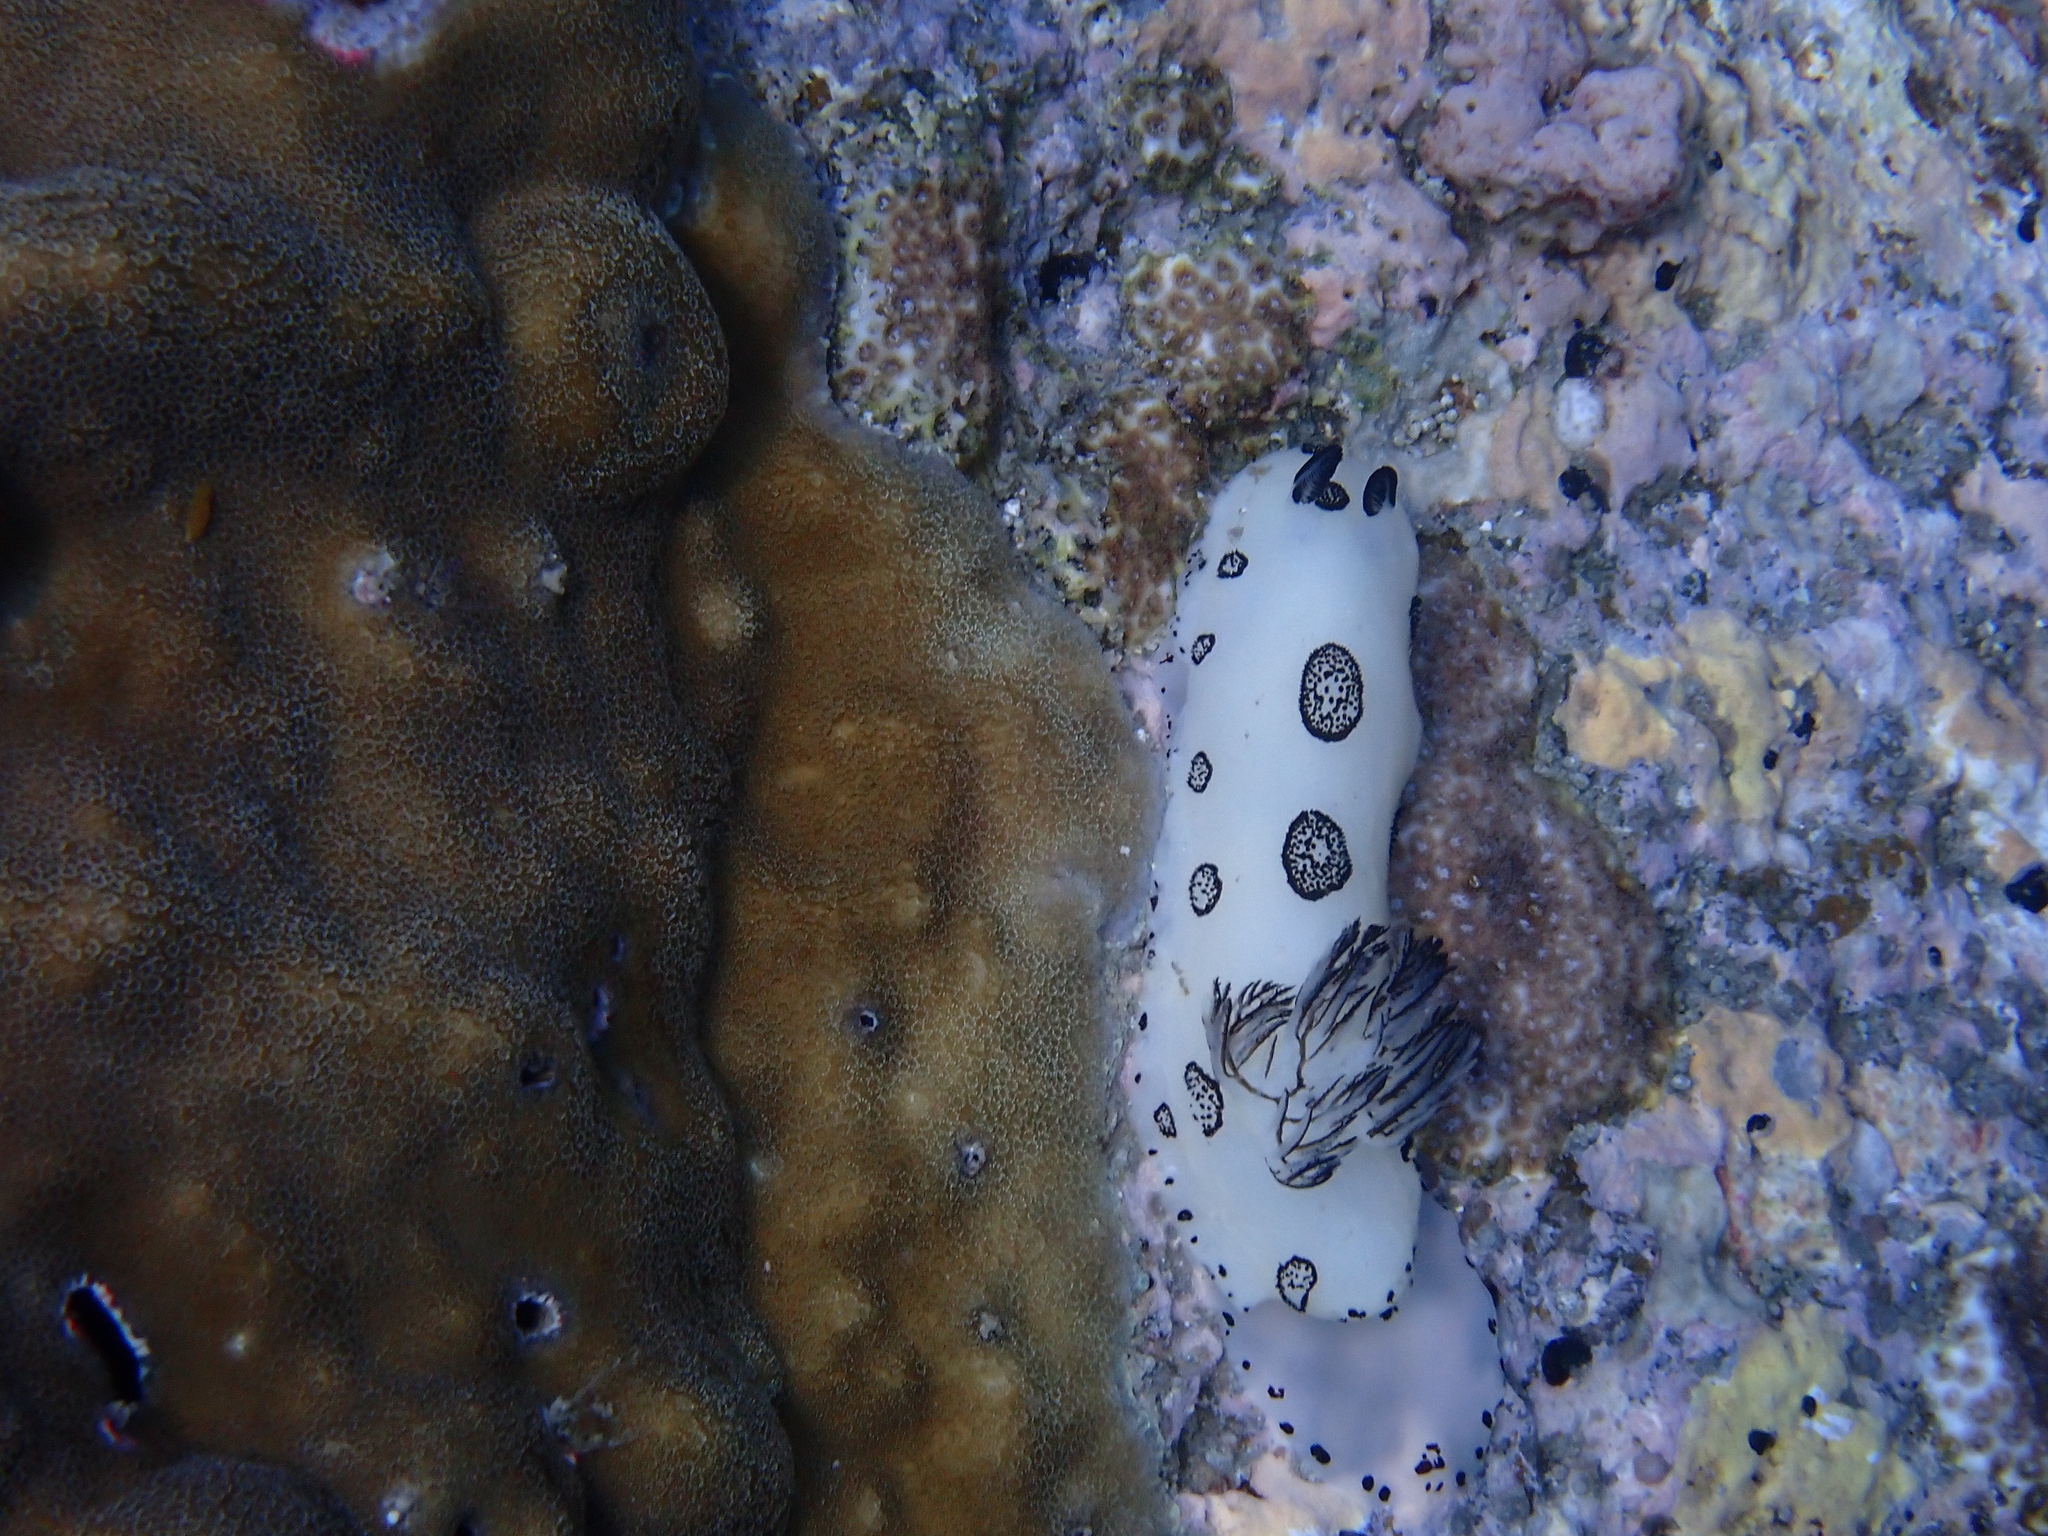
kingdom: Animalia
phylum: Mollusca
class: Gastropoda
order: Nudibranchia
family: Discodorididae
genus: Jorunna
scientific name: Jorunna funebris
